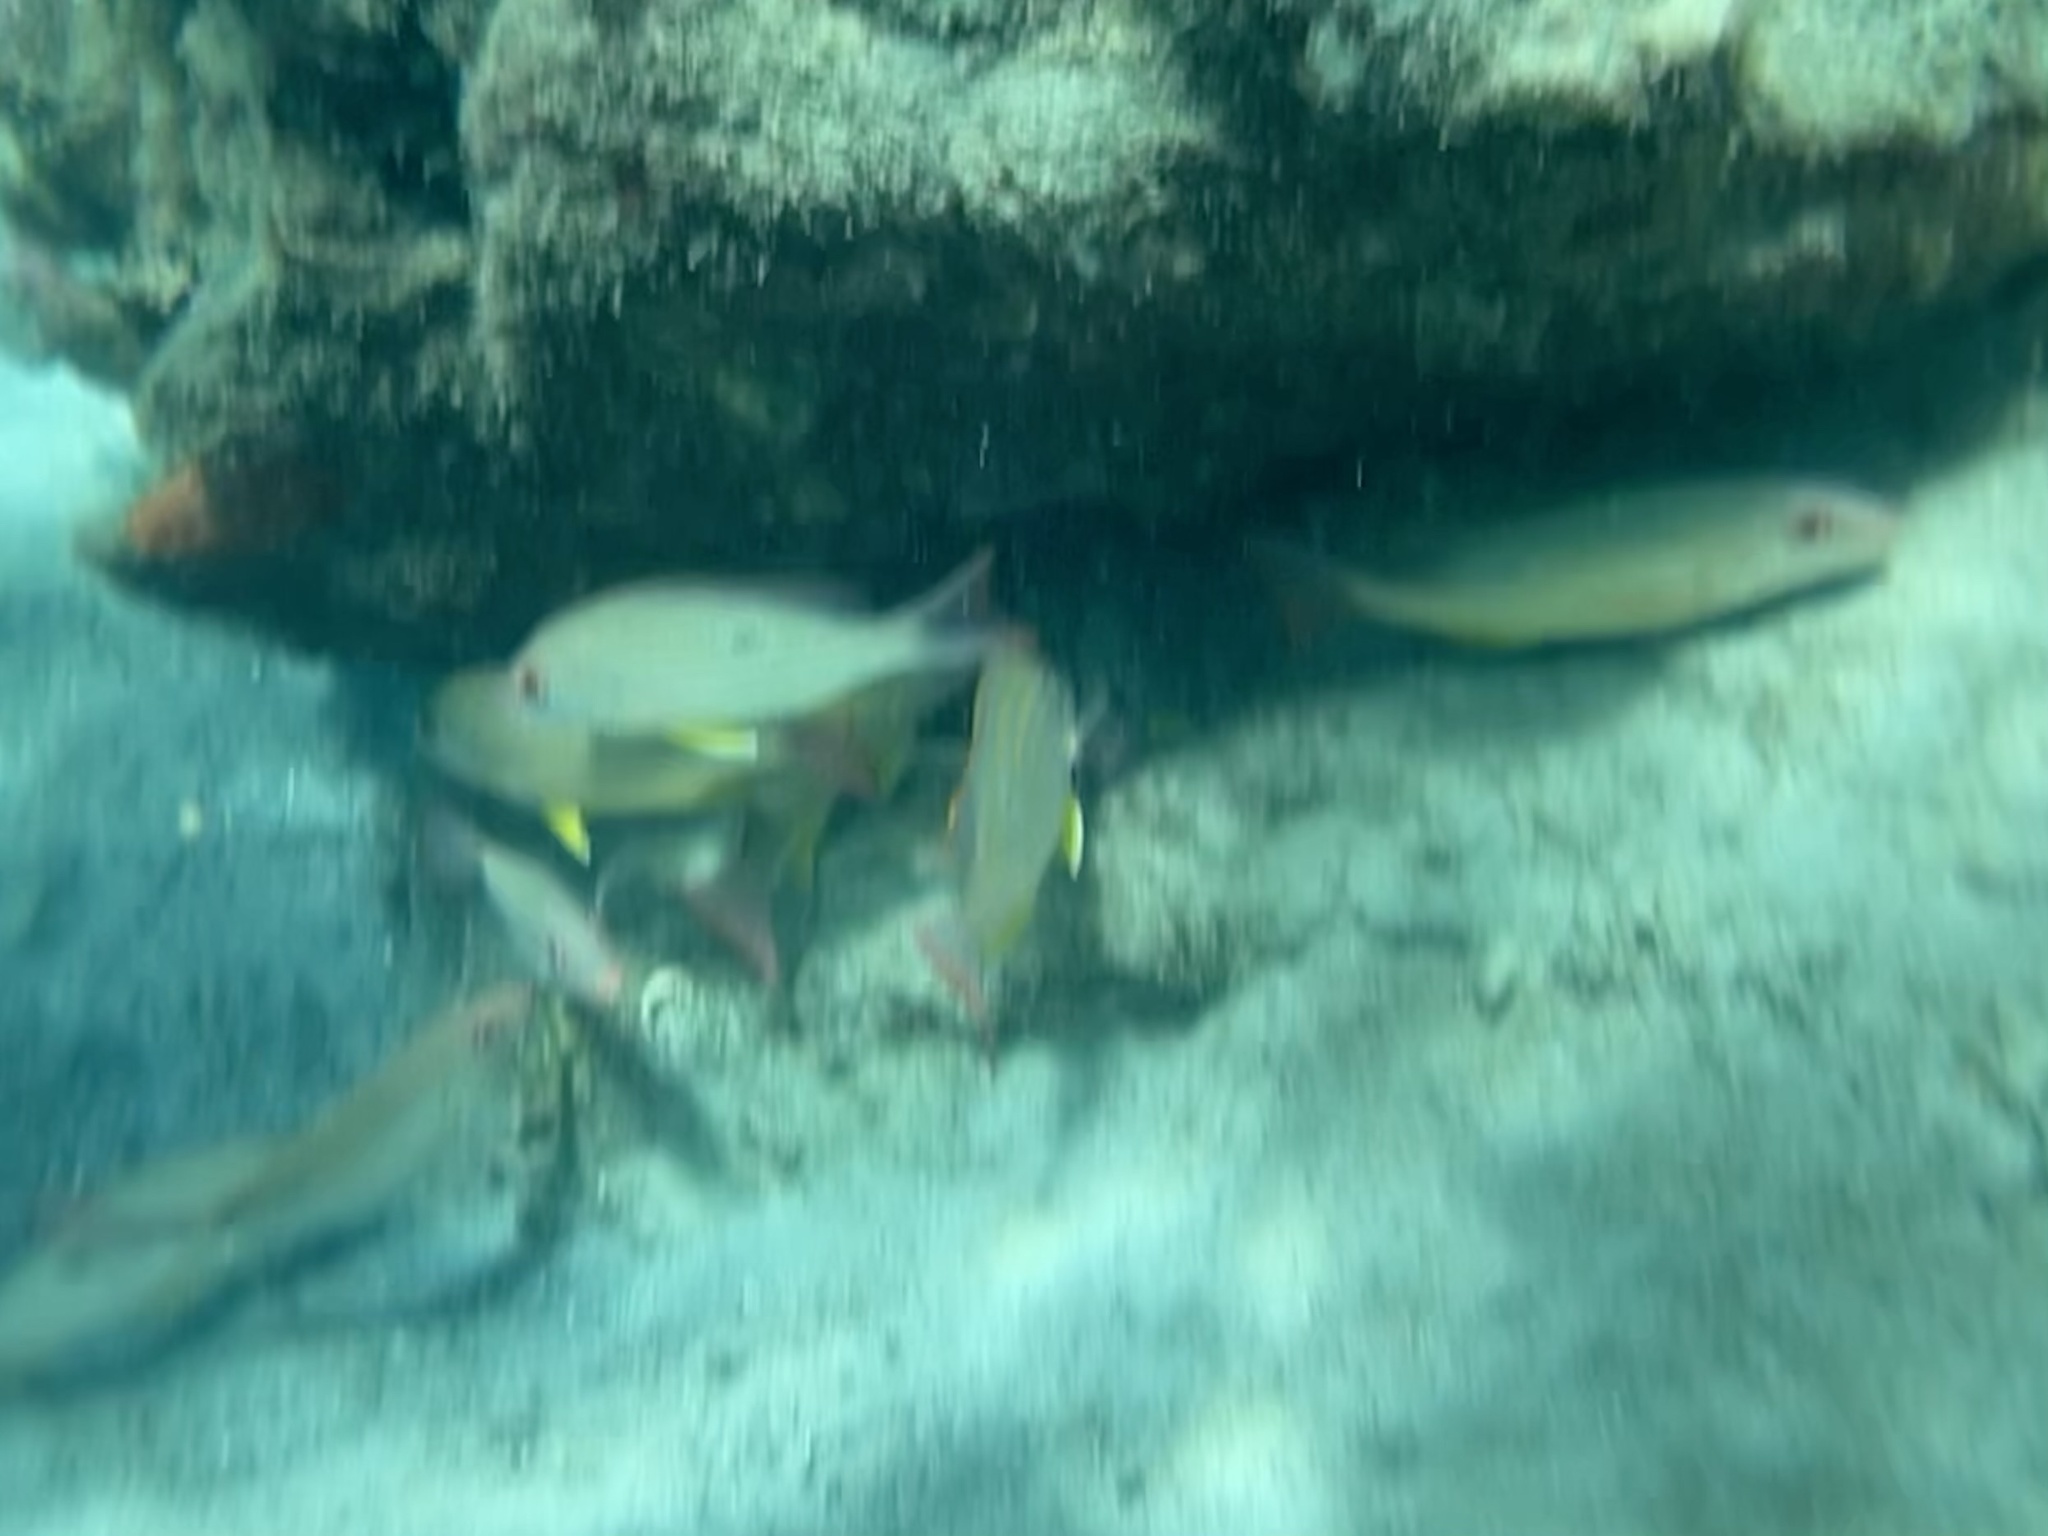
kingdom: Animalia
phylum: Chordata
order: Perciformes
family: Lutjanidae
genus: Lutjanus
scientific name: Lutjanus synagris
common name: Lane snapper
